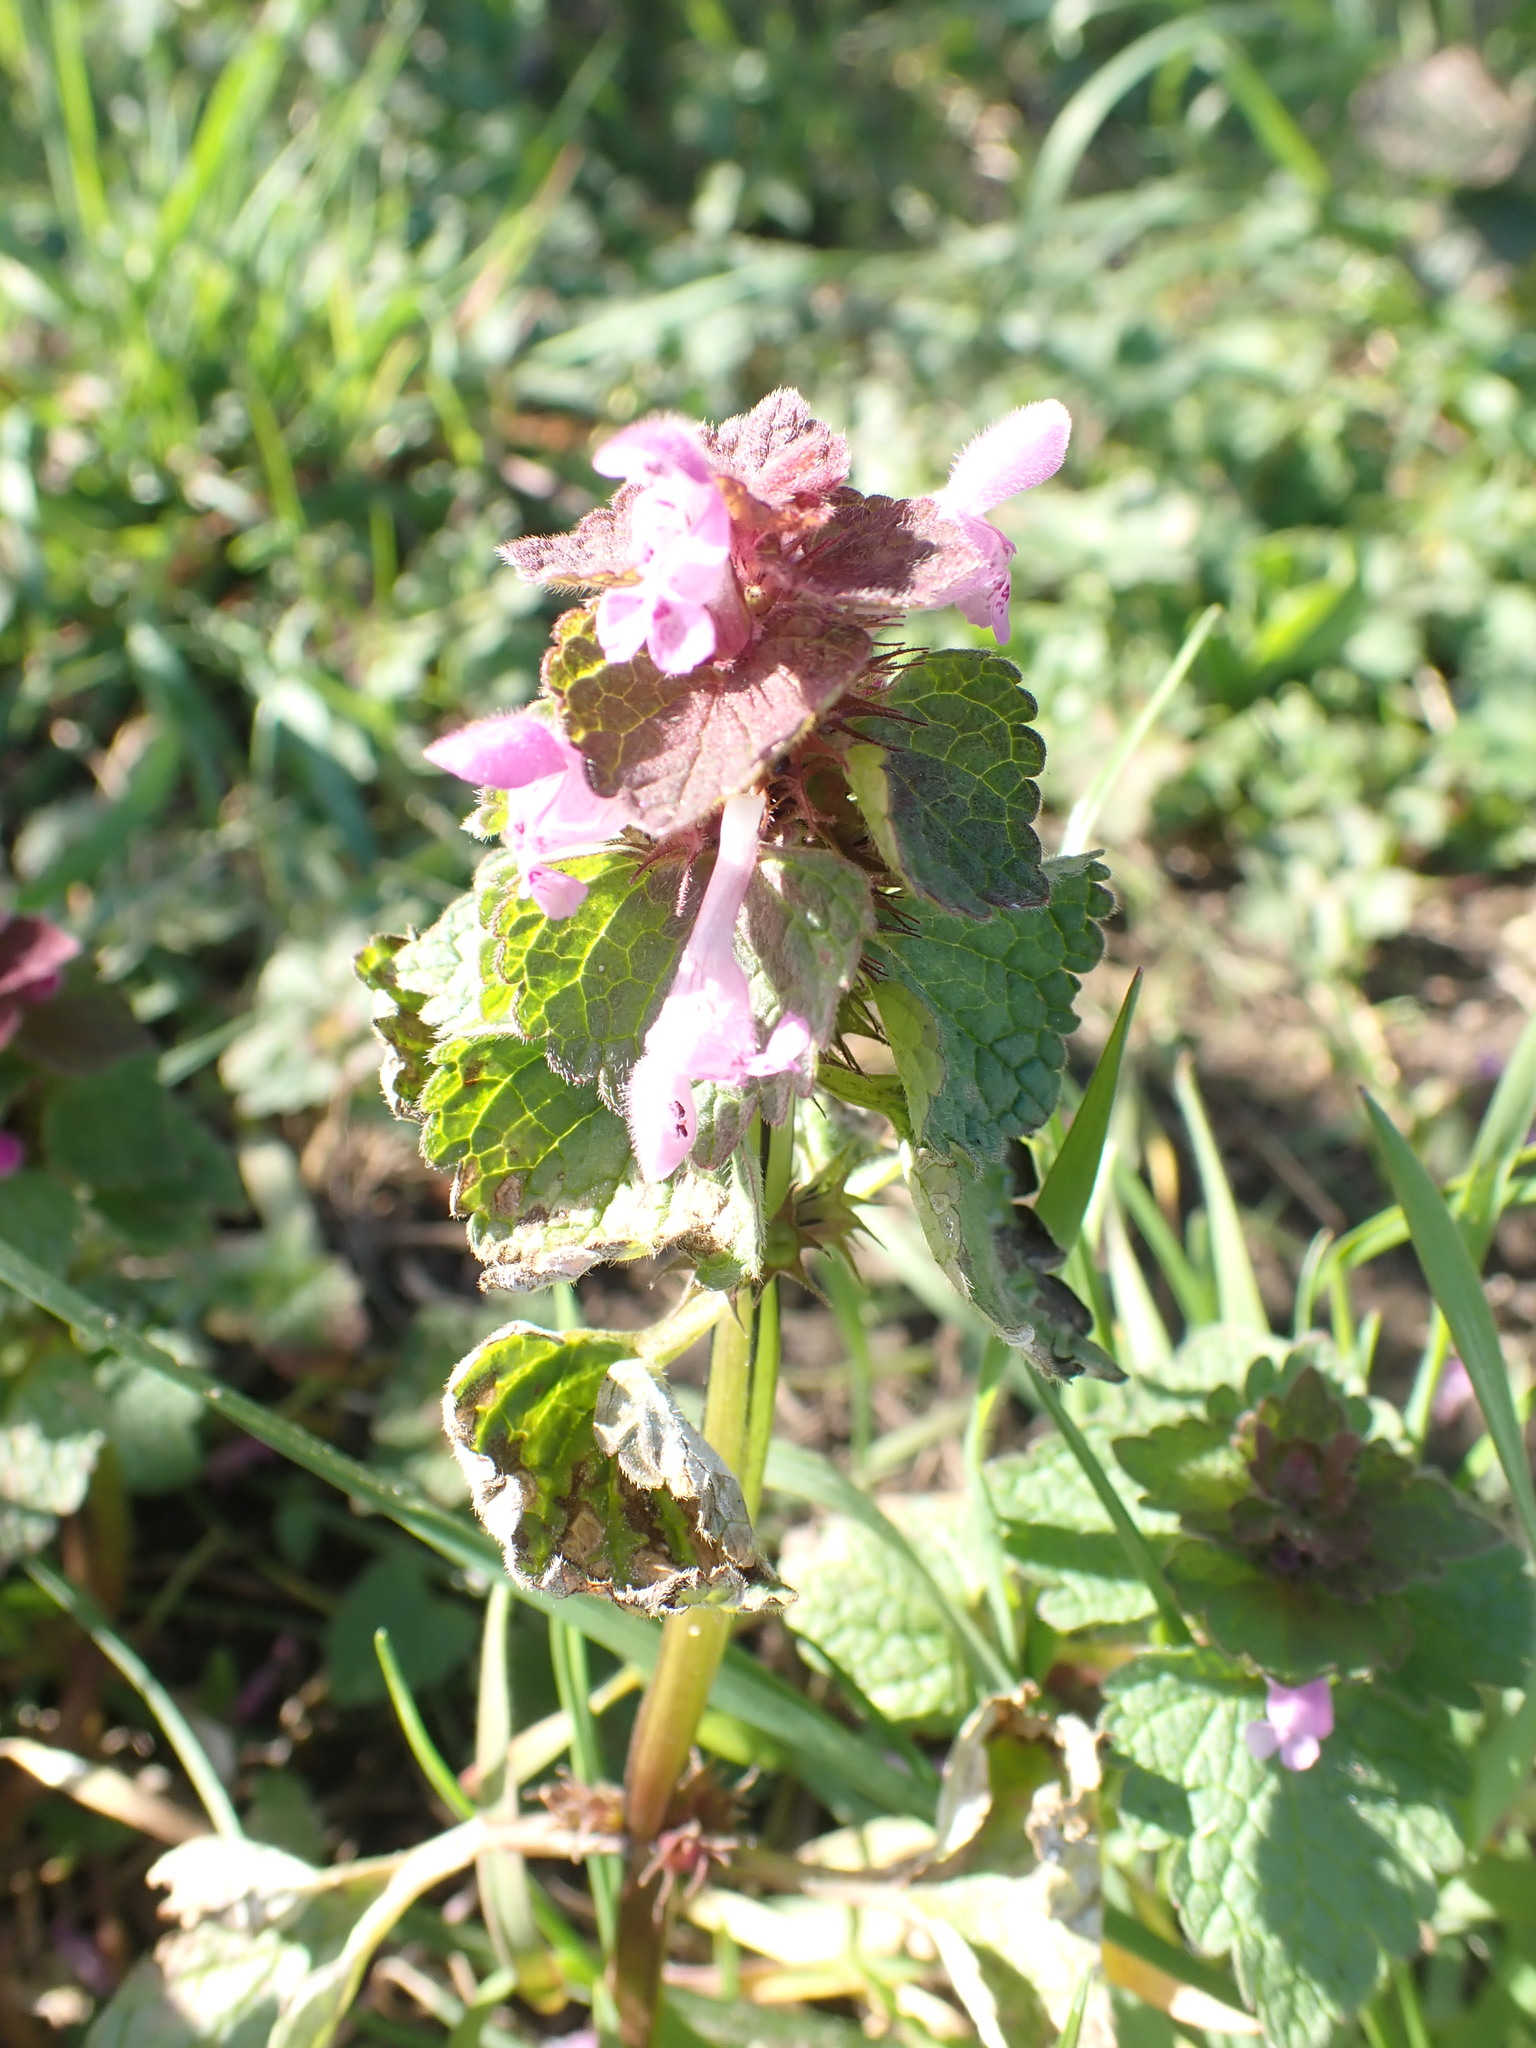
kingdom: Plantae
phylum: Tracheophyta
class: Magnoliopsida
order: Lamiales
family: Lamiaceae
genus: Lamium
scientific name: Lamium purpureum
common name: Red dead-nettle
